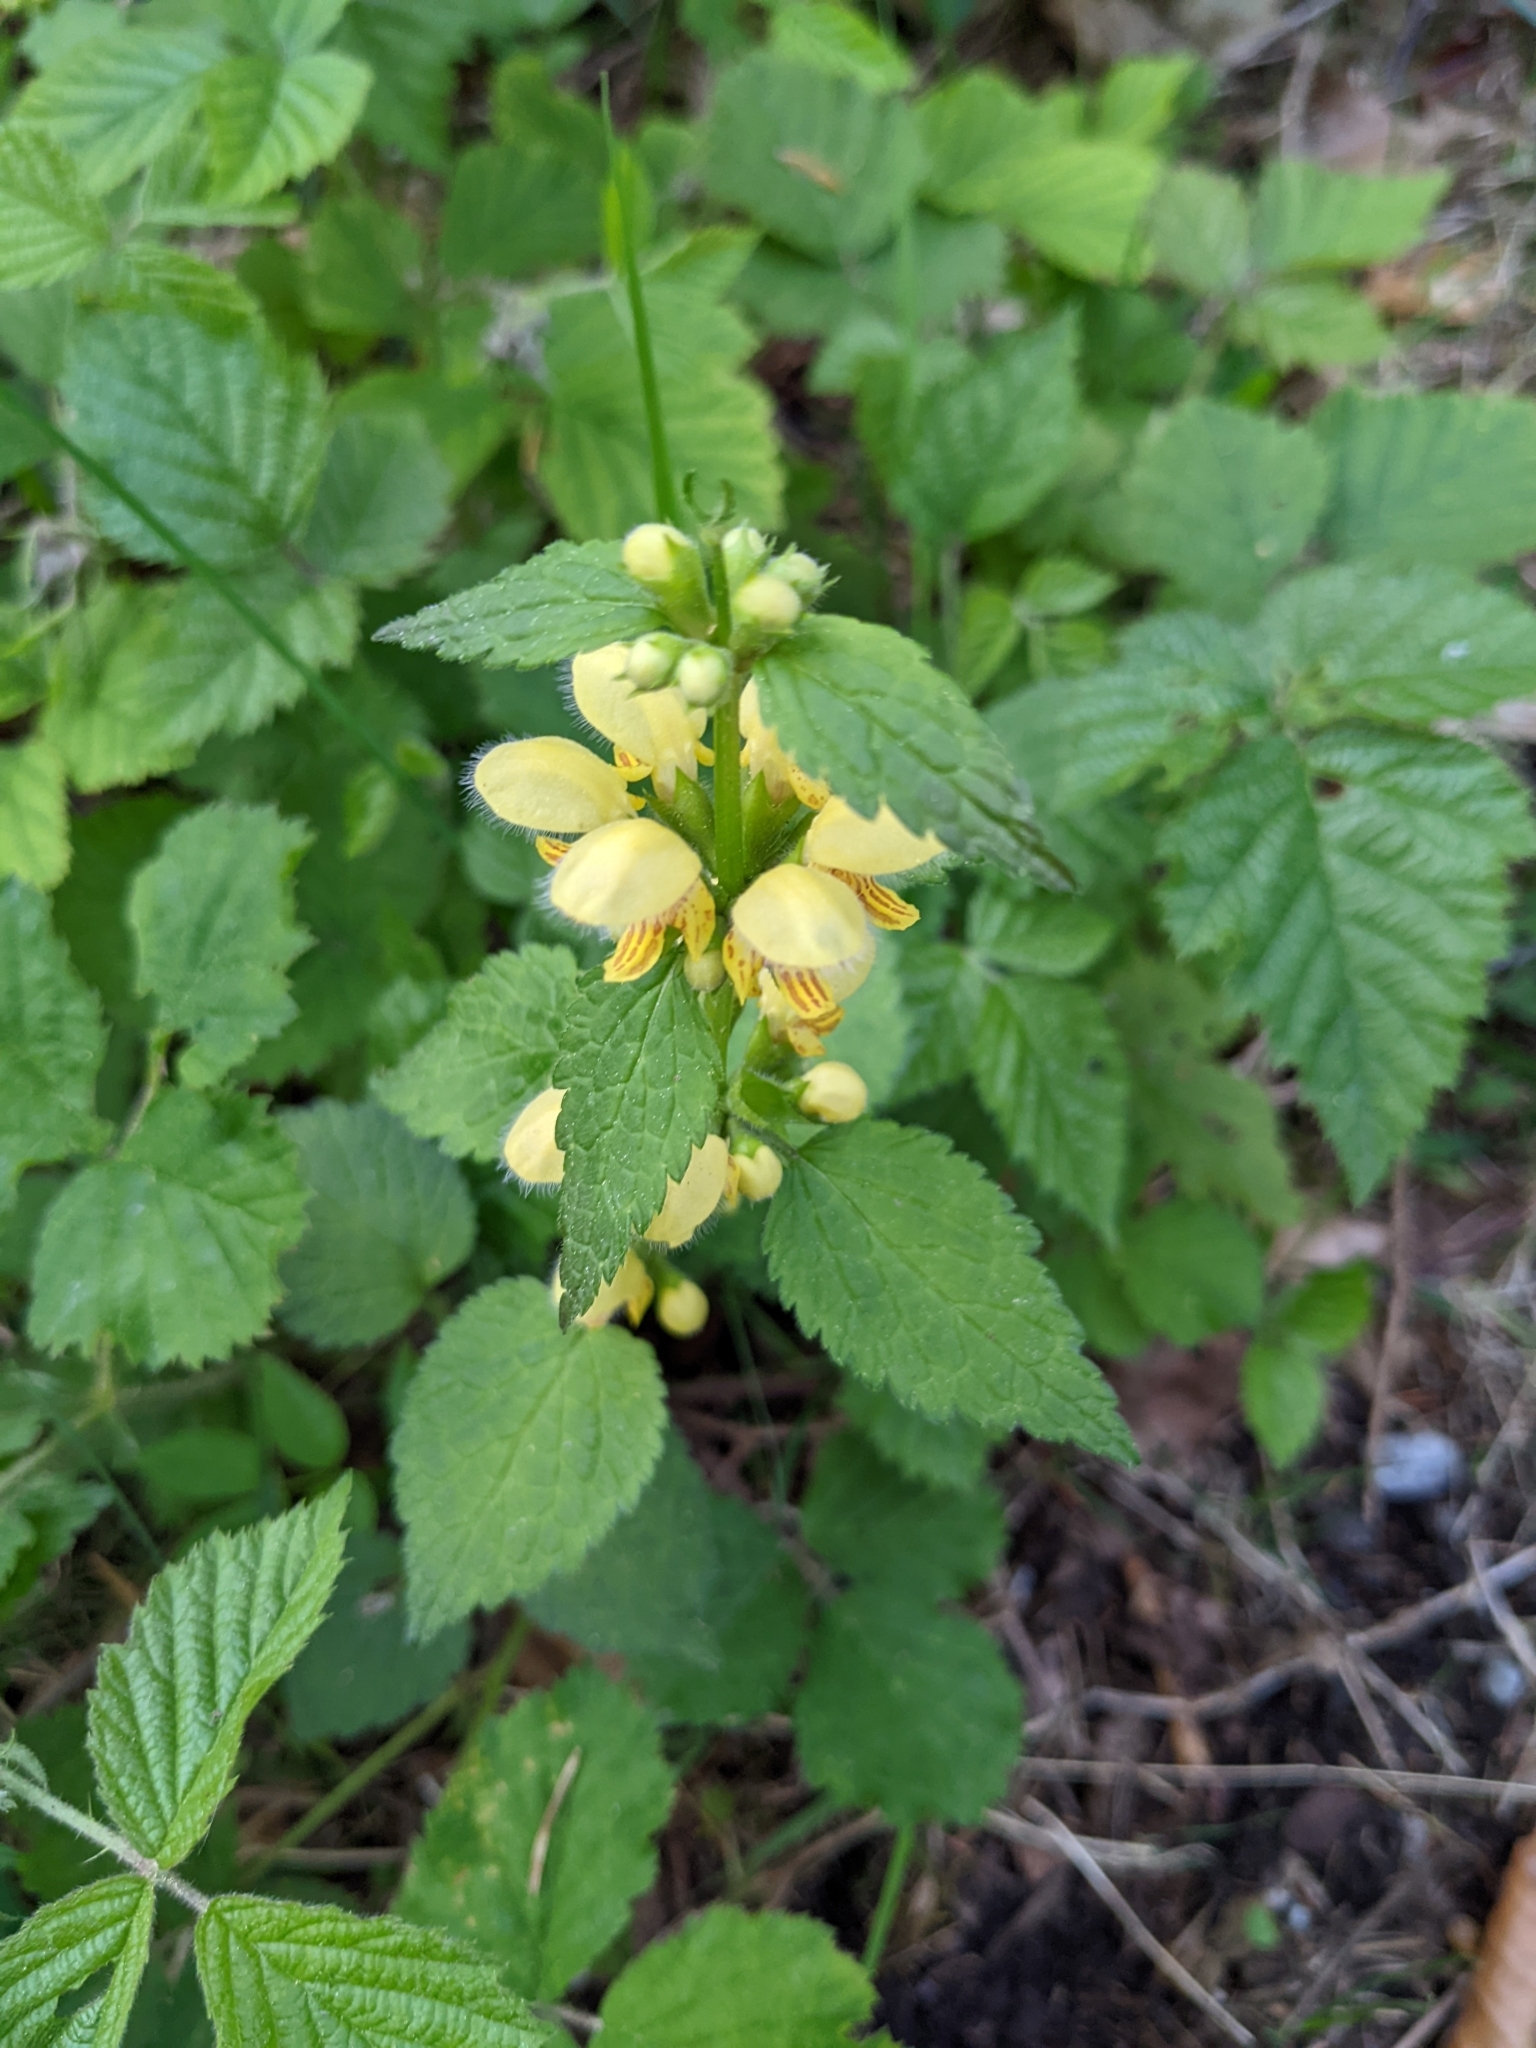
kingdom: Plantae
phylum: Tracheophyta
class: Magnoliopsida
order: Lamiales
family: Lamiaceae
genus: Lamium
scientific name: Lamium galeobdolon
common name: Yellow archangel
